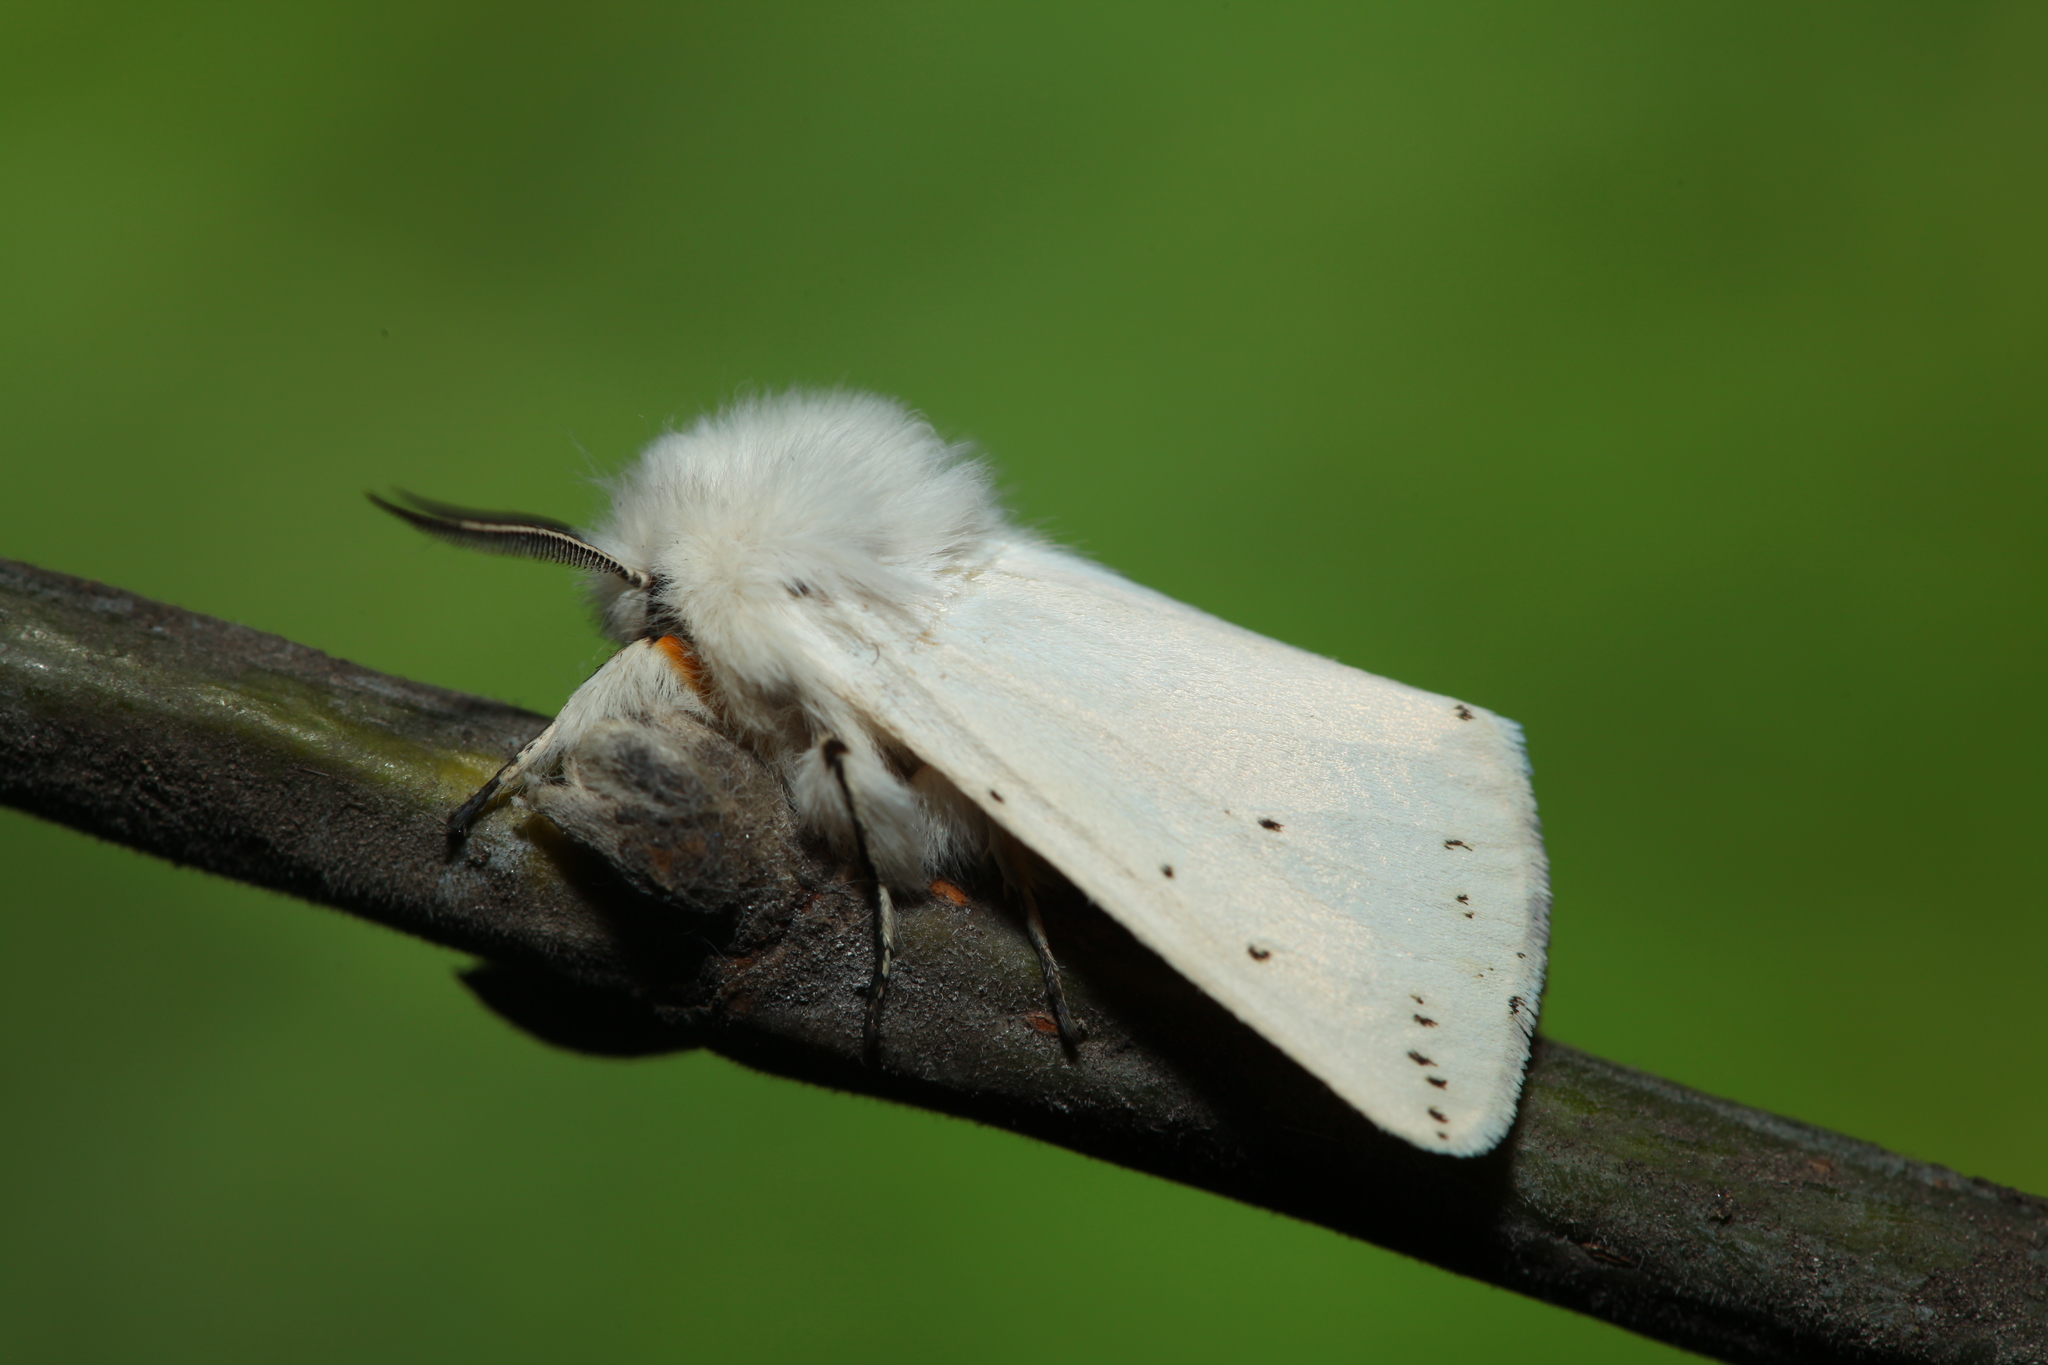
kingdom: Animalia
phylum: Arthropoda
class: Insecta
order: Lepidoptera
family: Erebidae
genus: Spilosoma
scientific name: Spilosoma lubricipeda
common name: White ermine
